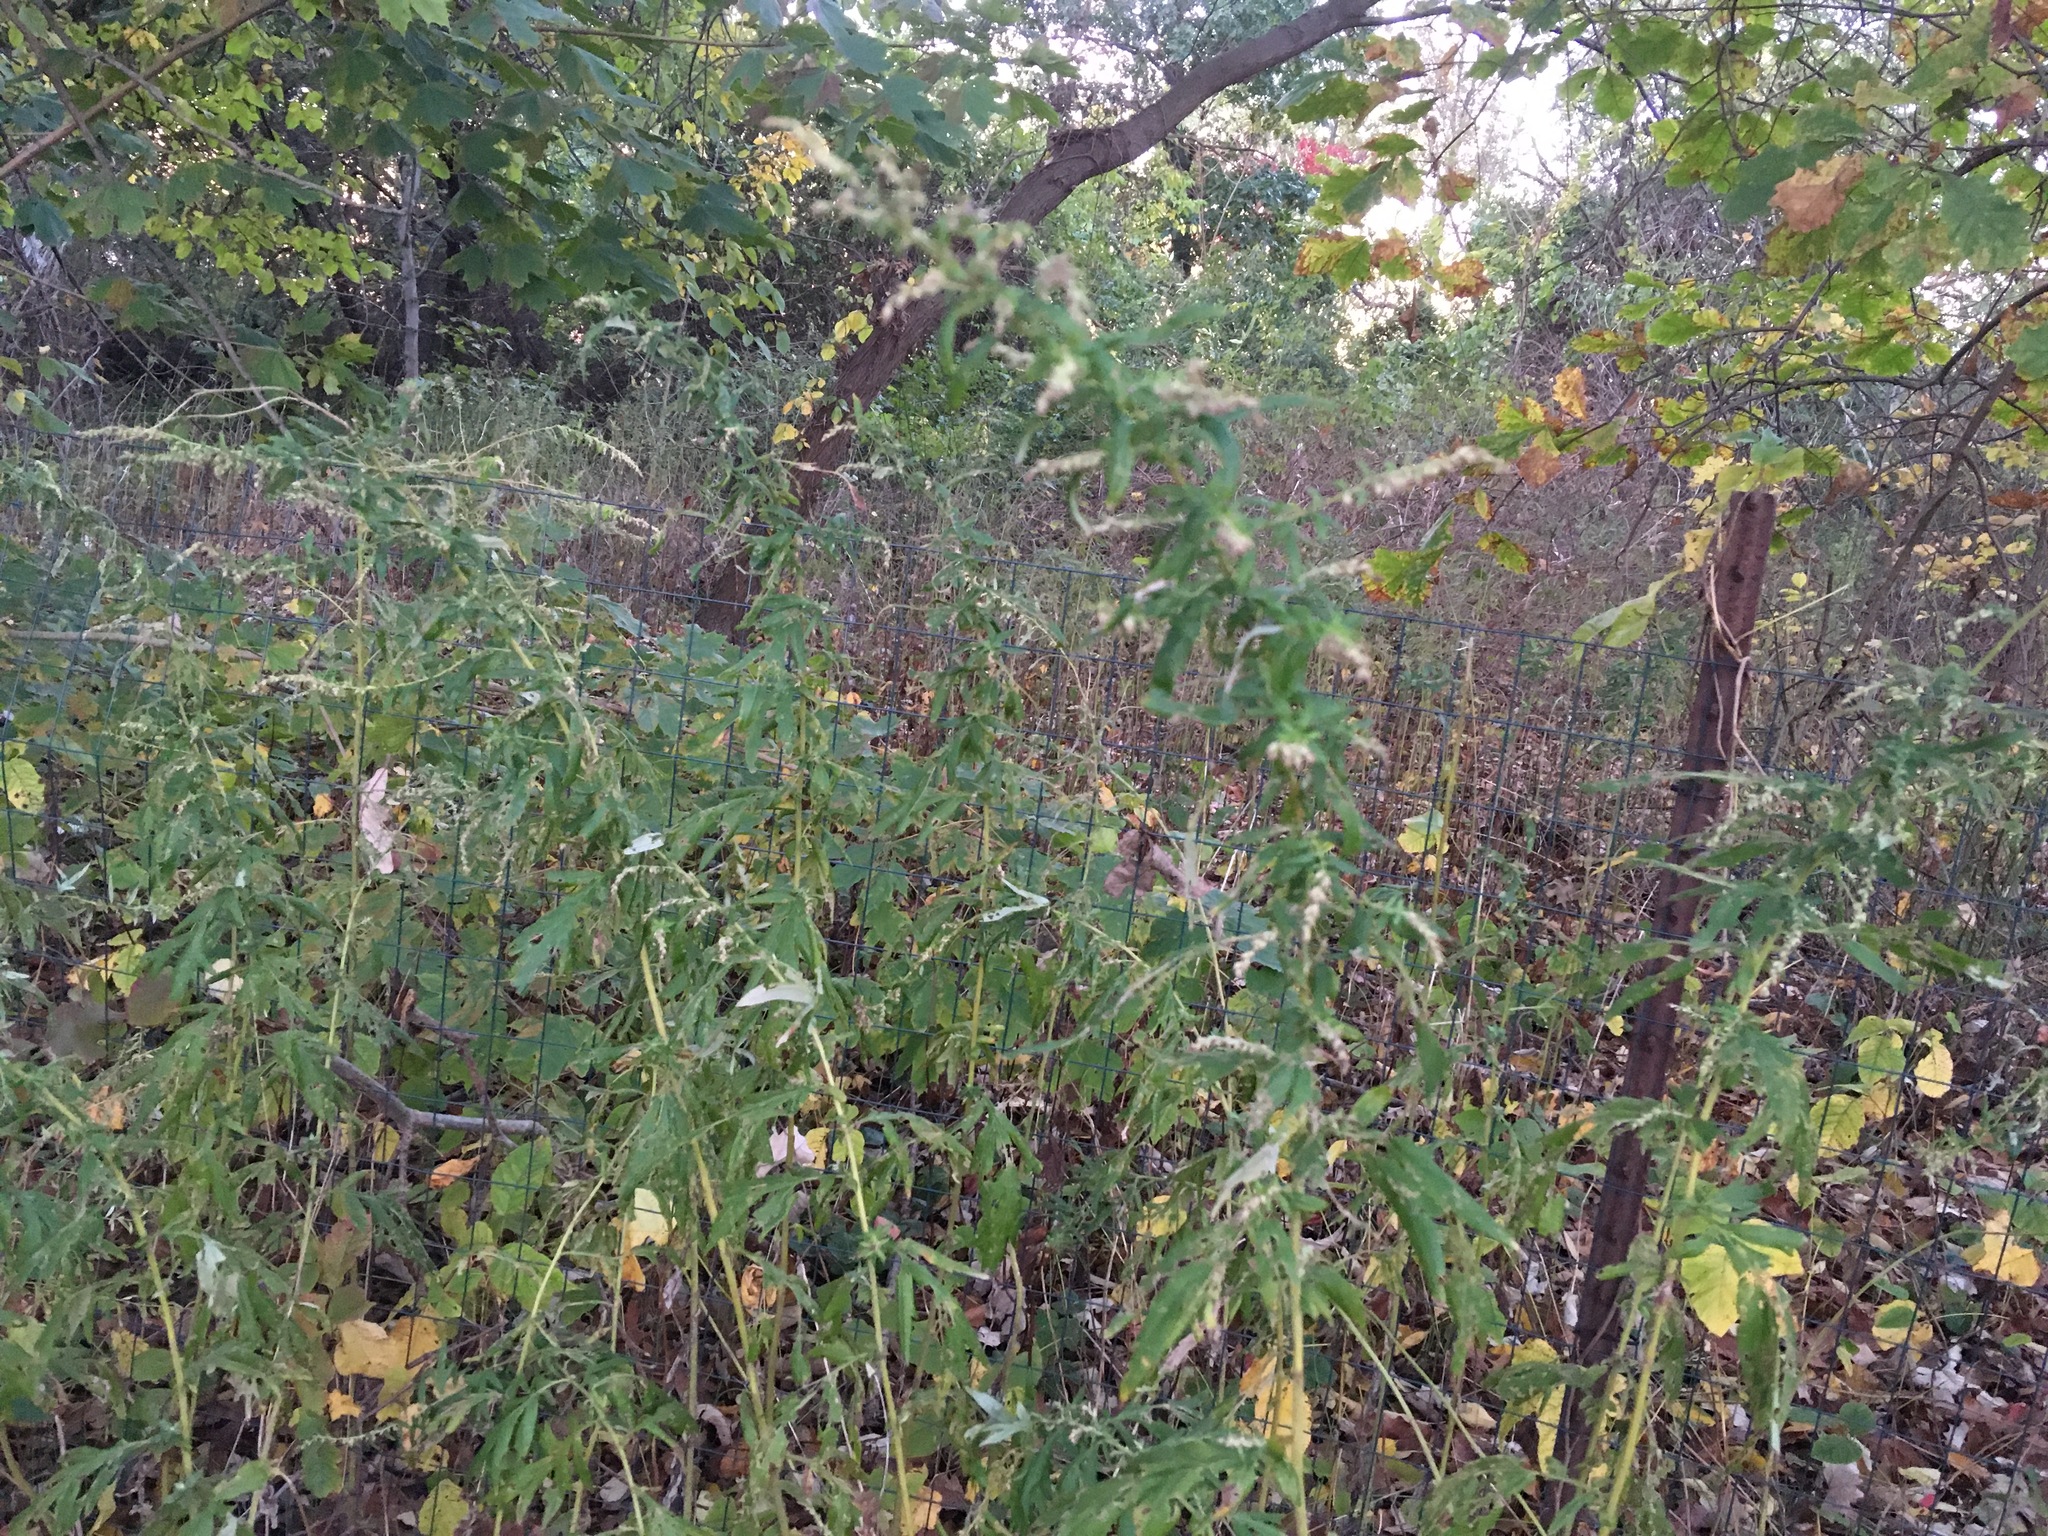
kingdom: Plantae
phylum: Tracheophyta
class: Magnoliopsida
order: Asterales
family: Asteraceae
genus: Artemisia
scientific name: Artemisia vulgaris
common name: Mugwort
